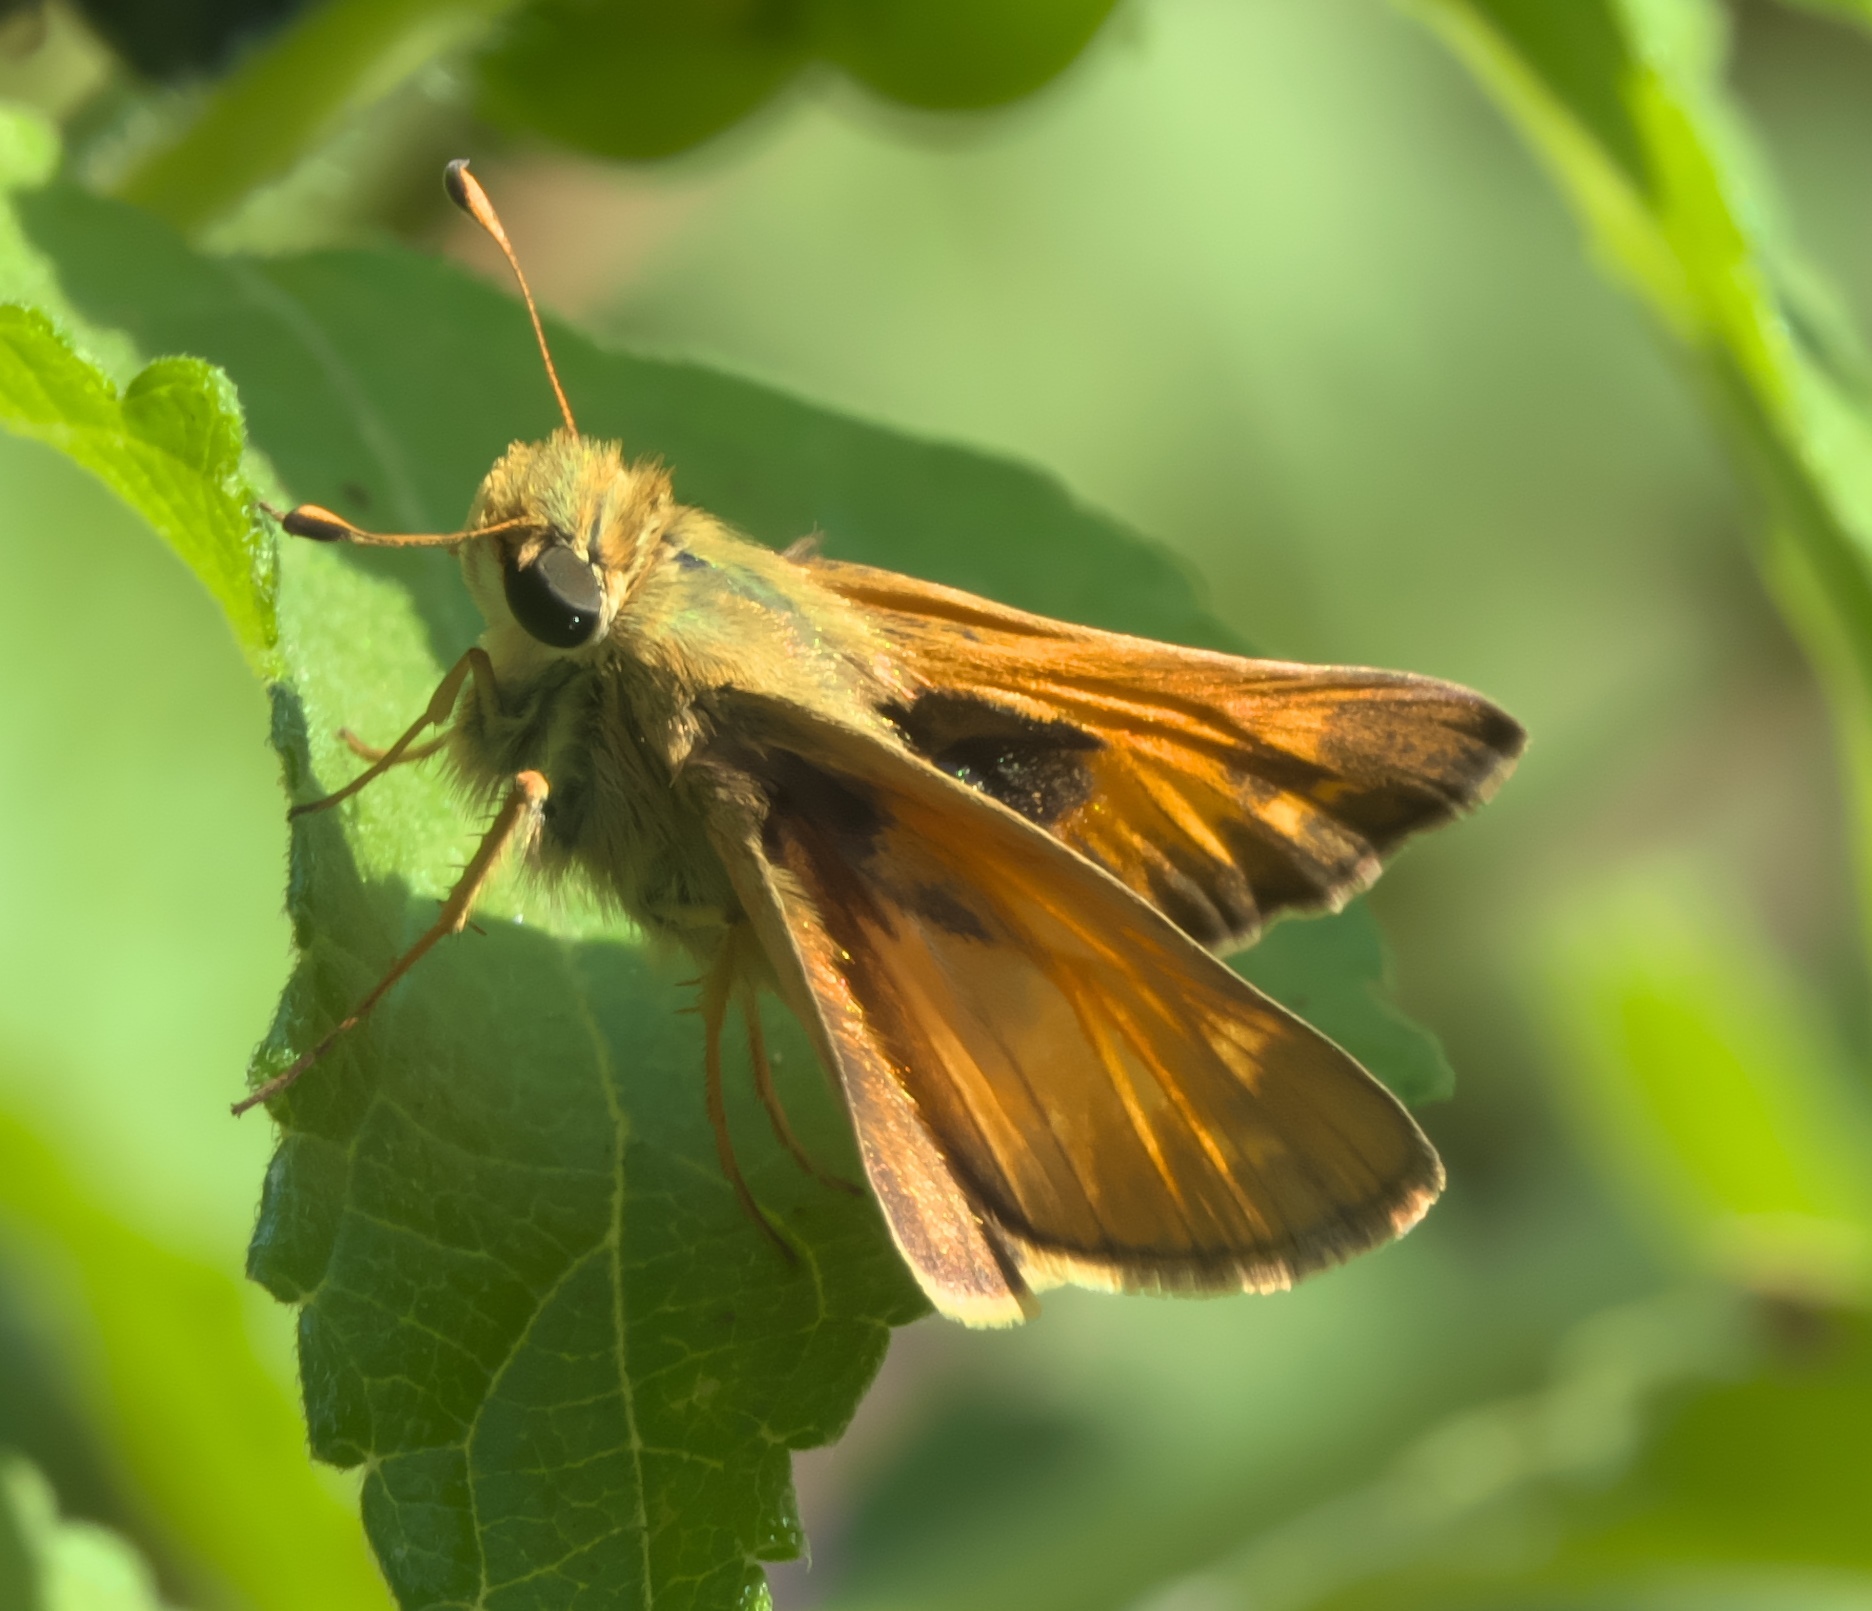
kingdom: Animalia
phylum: Arthropoda
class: Insecta
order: Lepidoptera
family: Hesperiidae
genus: Atalopedes
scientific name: Atalopedes
